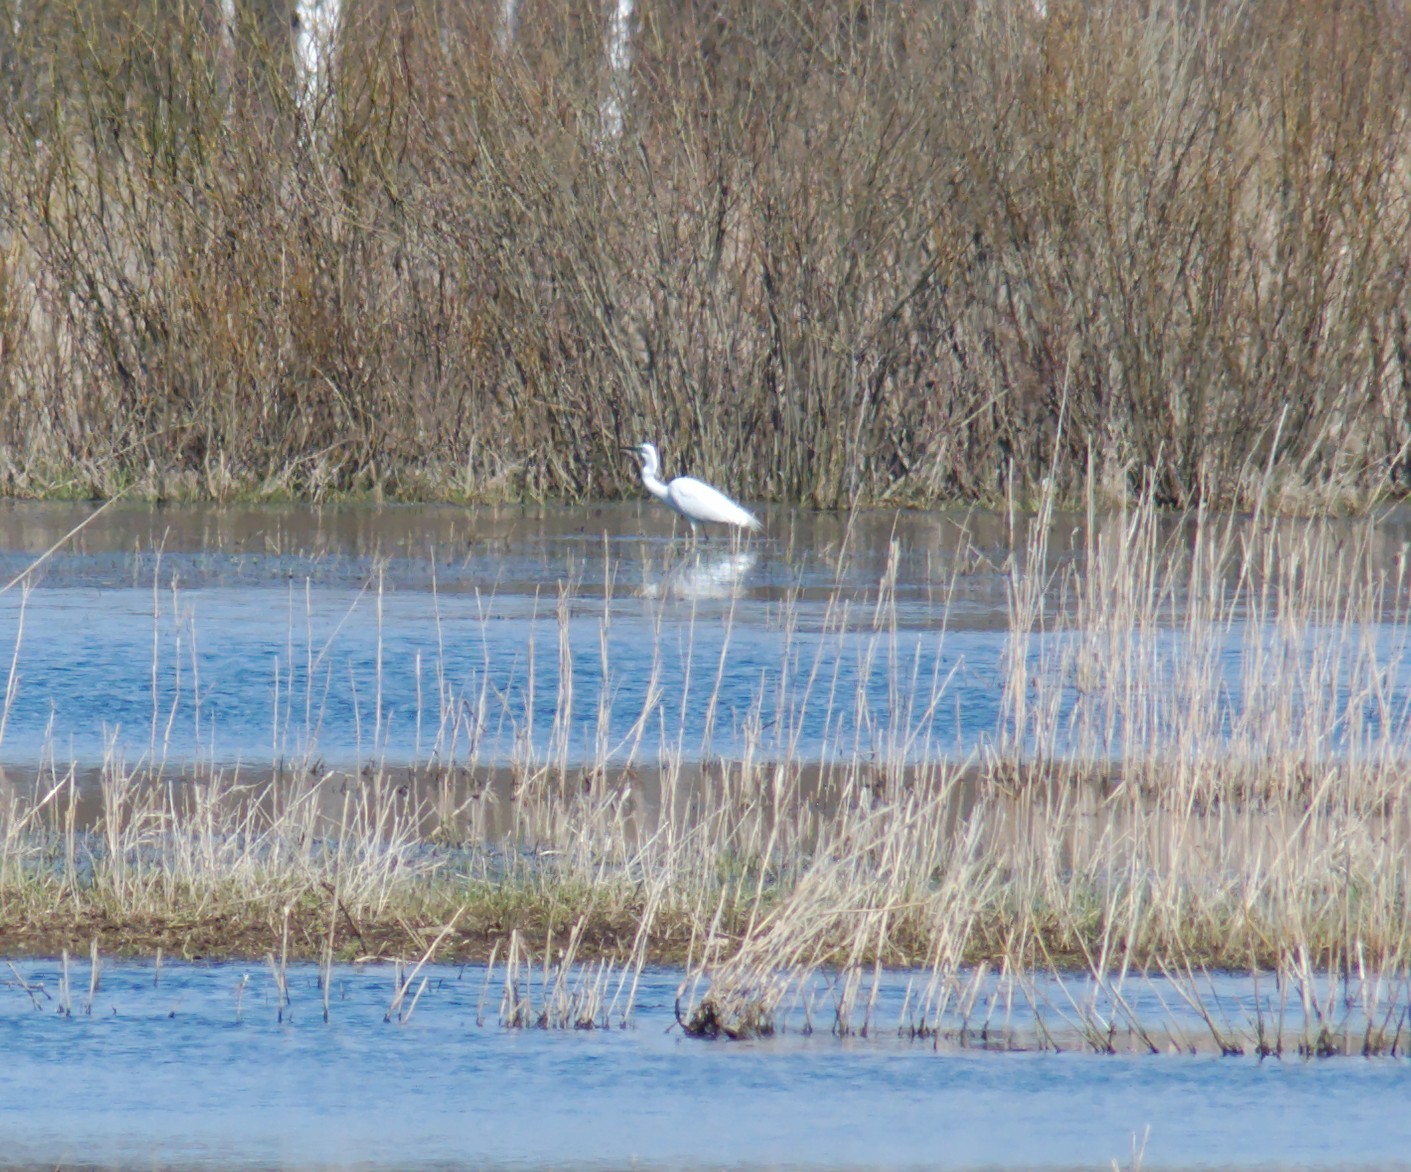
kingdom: Animalia
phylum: Chordata
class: Aves
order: Pelecaniformes
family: Ardeidae
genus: Ardea
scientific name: Ardea alba
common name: Great egret
